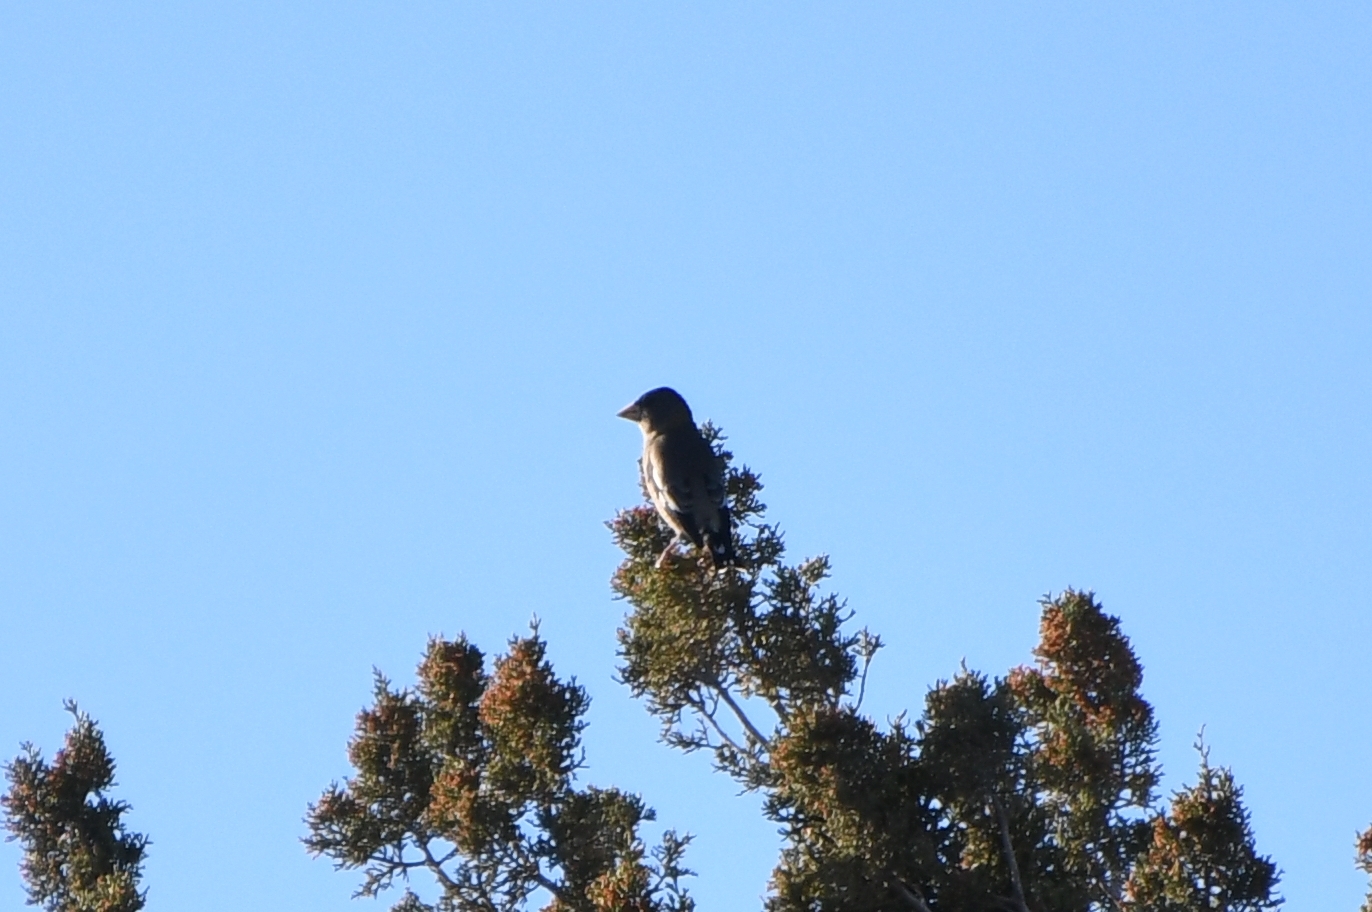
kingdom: Animalia
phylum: Chordata
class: Aves
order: Passeriformes
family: Fringillidae
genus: Hesperiphona
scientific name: Hesperiphona vespertina
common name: Evening grosbeak
